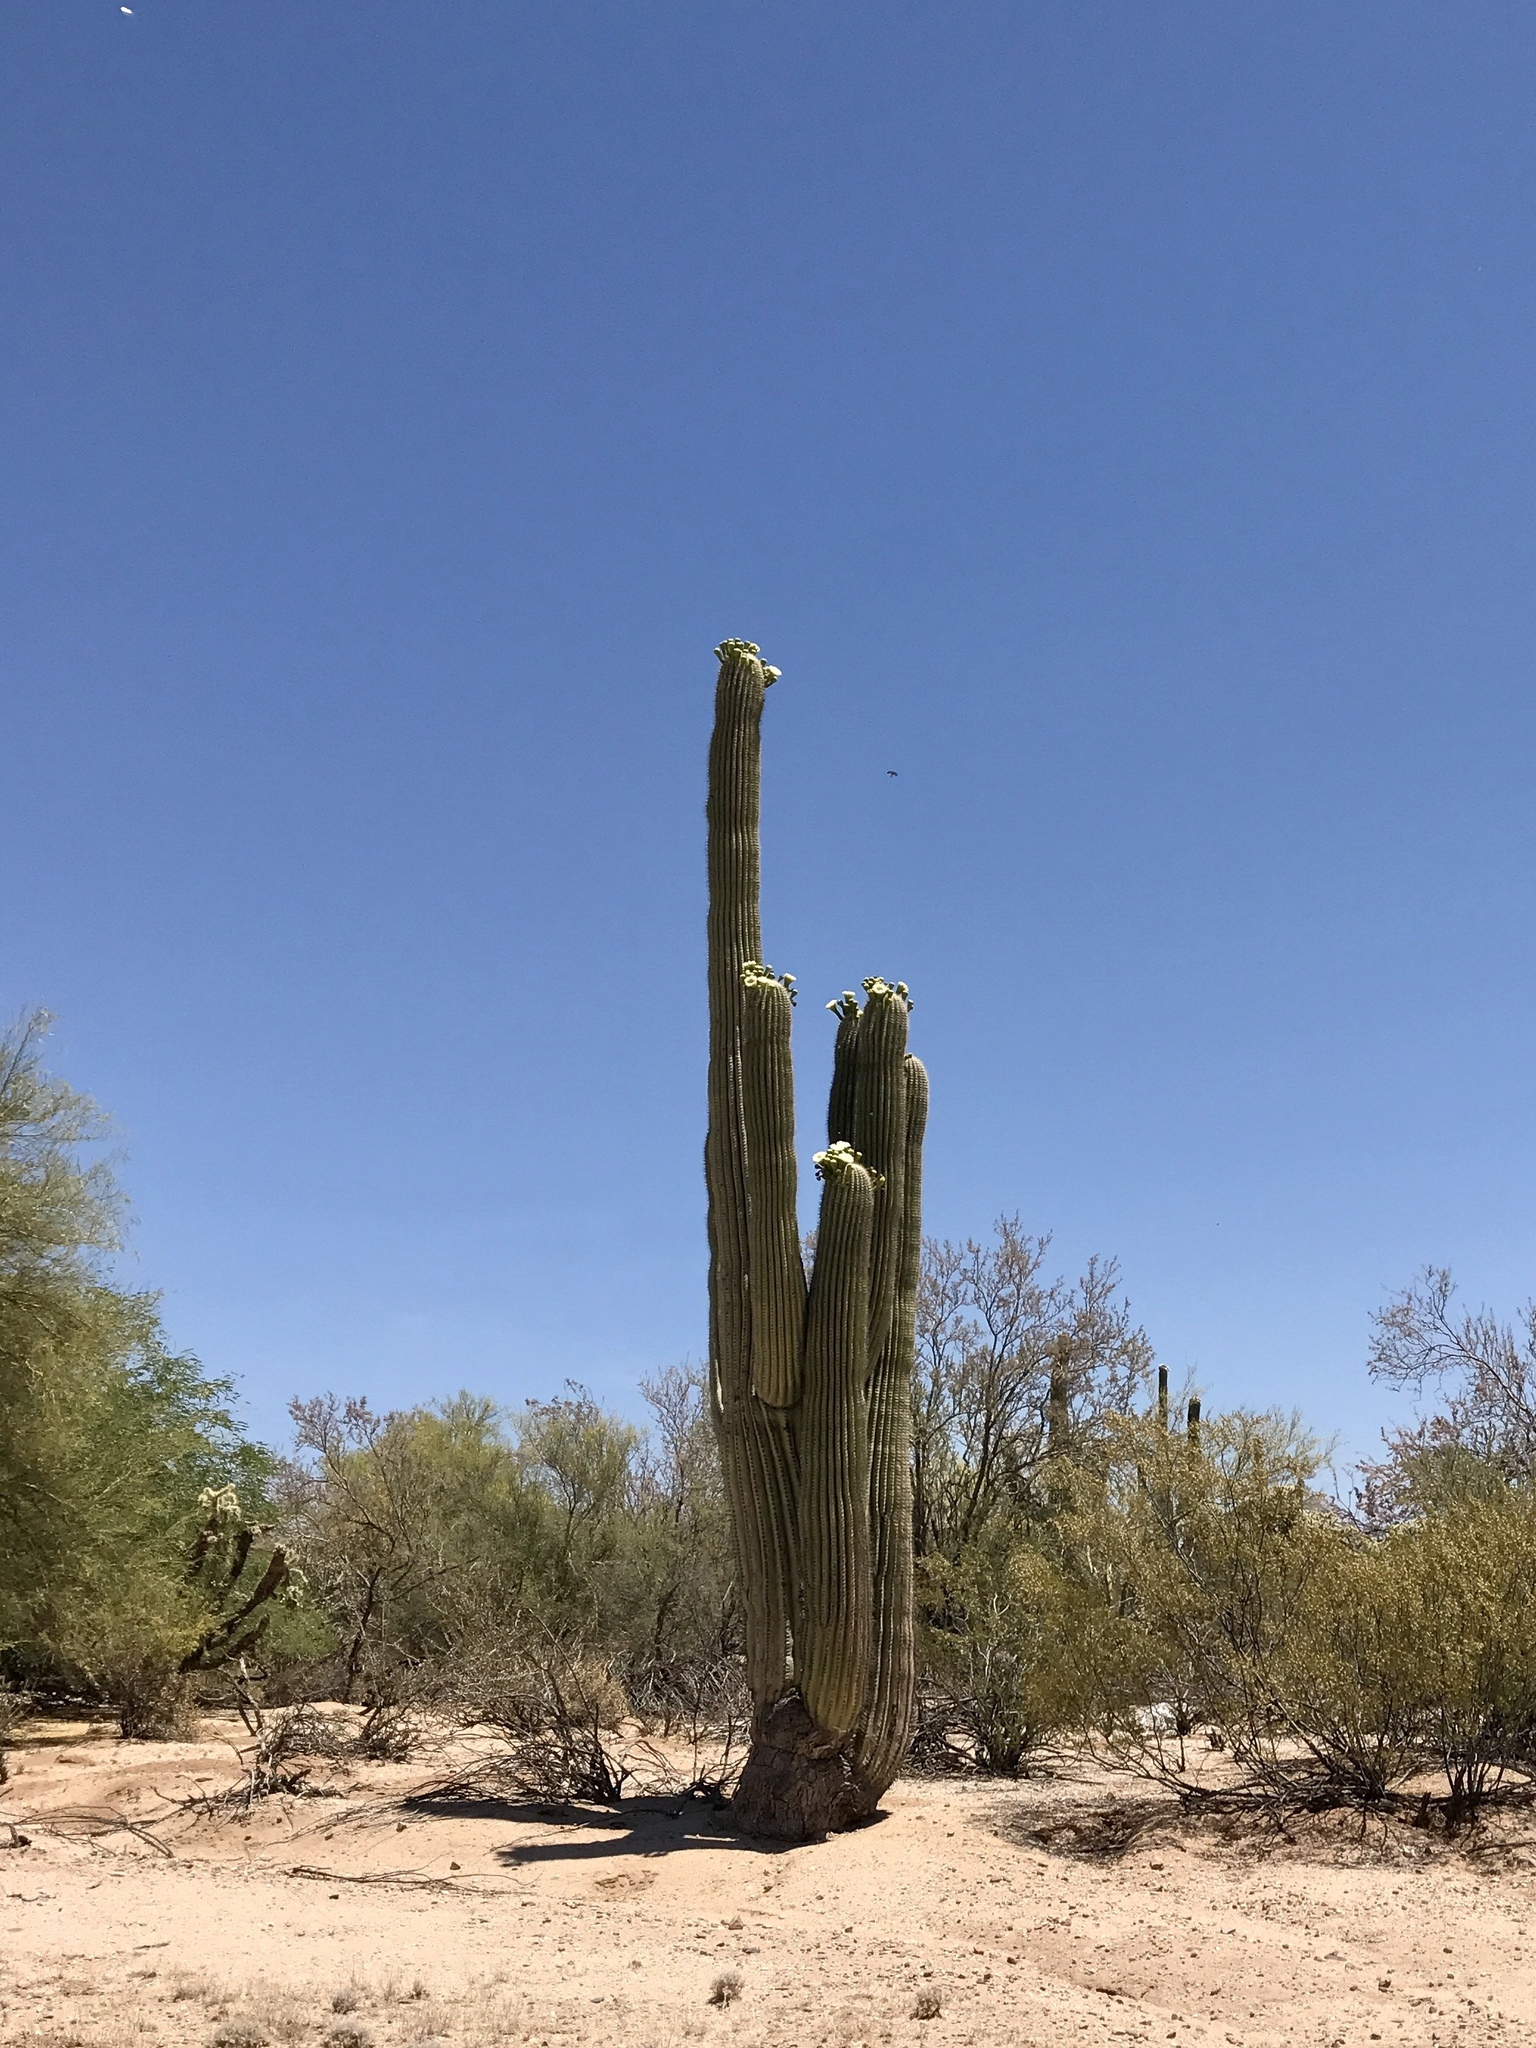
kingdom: Plantae
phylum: Tracheophyta
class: Magnoliopsida
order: Caryophyllales
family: Cactaceae
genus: Carnegiea
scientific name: Carnegiea gigantea
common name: Saguaro
